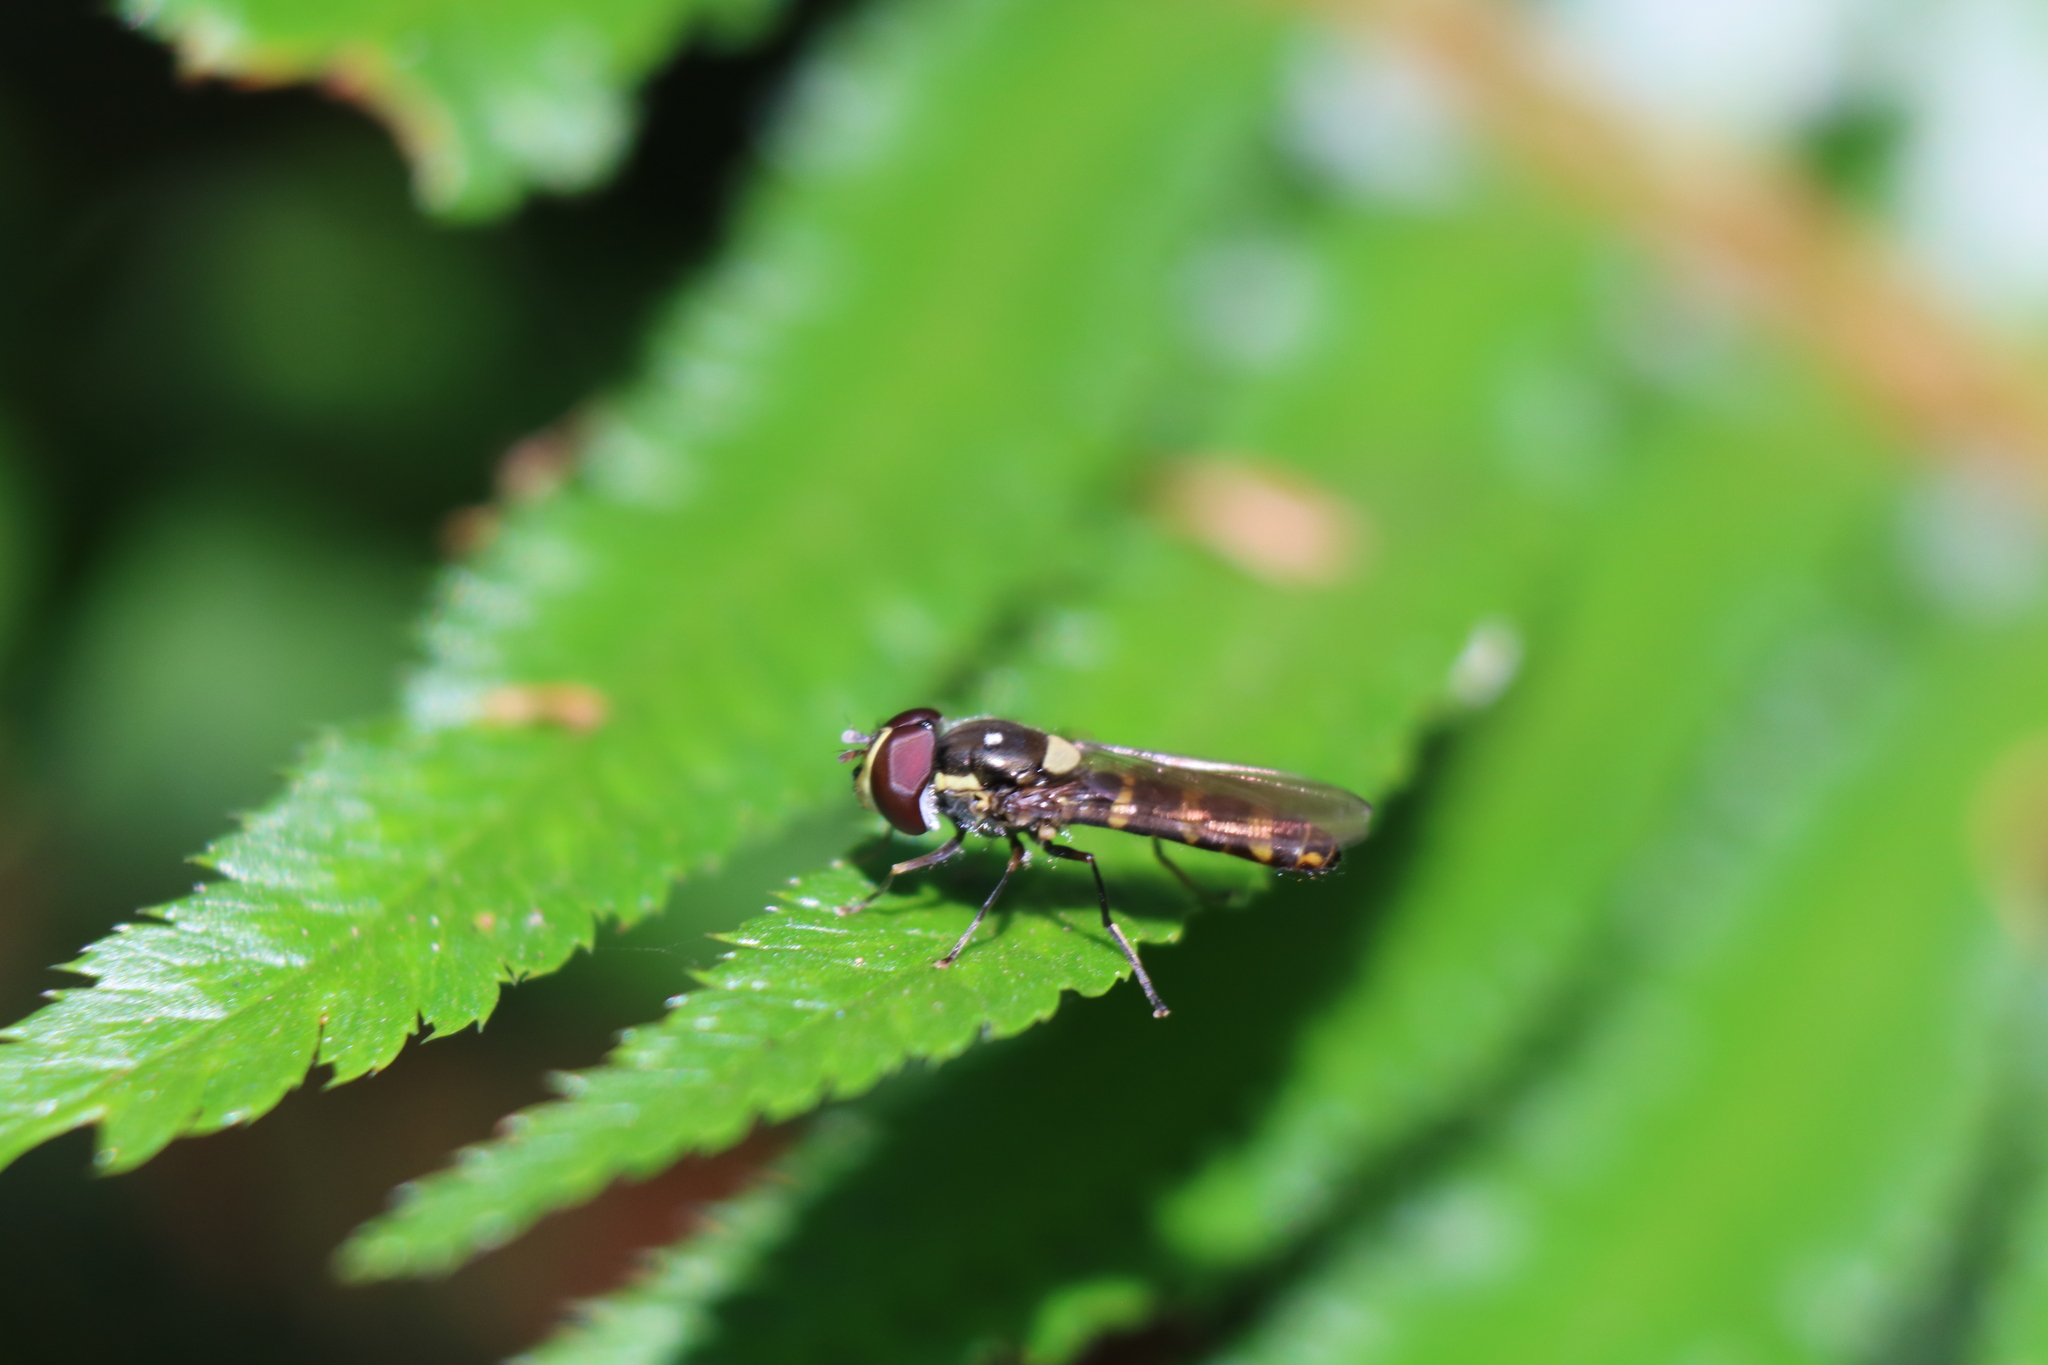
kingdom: Animalia
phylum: Arthropoda
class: Insecta
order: Diptera
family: Syrphidae
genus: Fazia
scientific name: Fazia micrura
